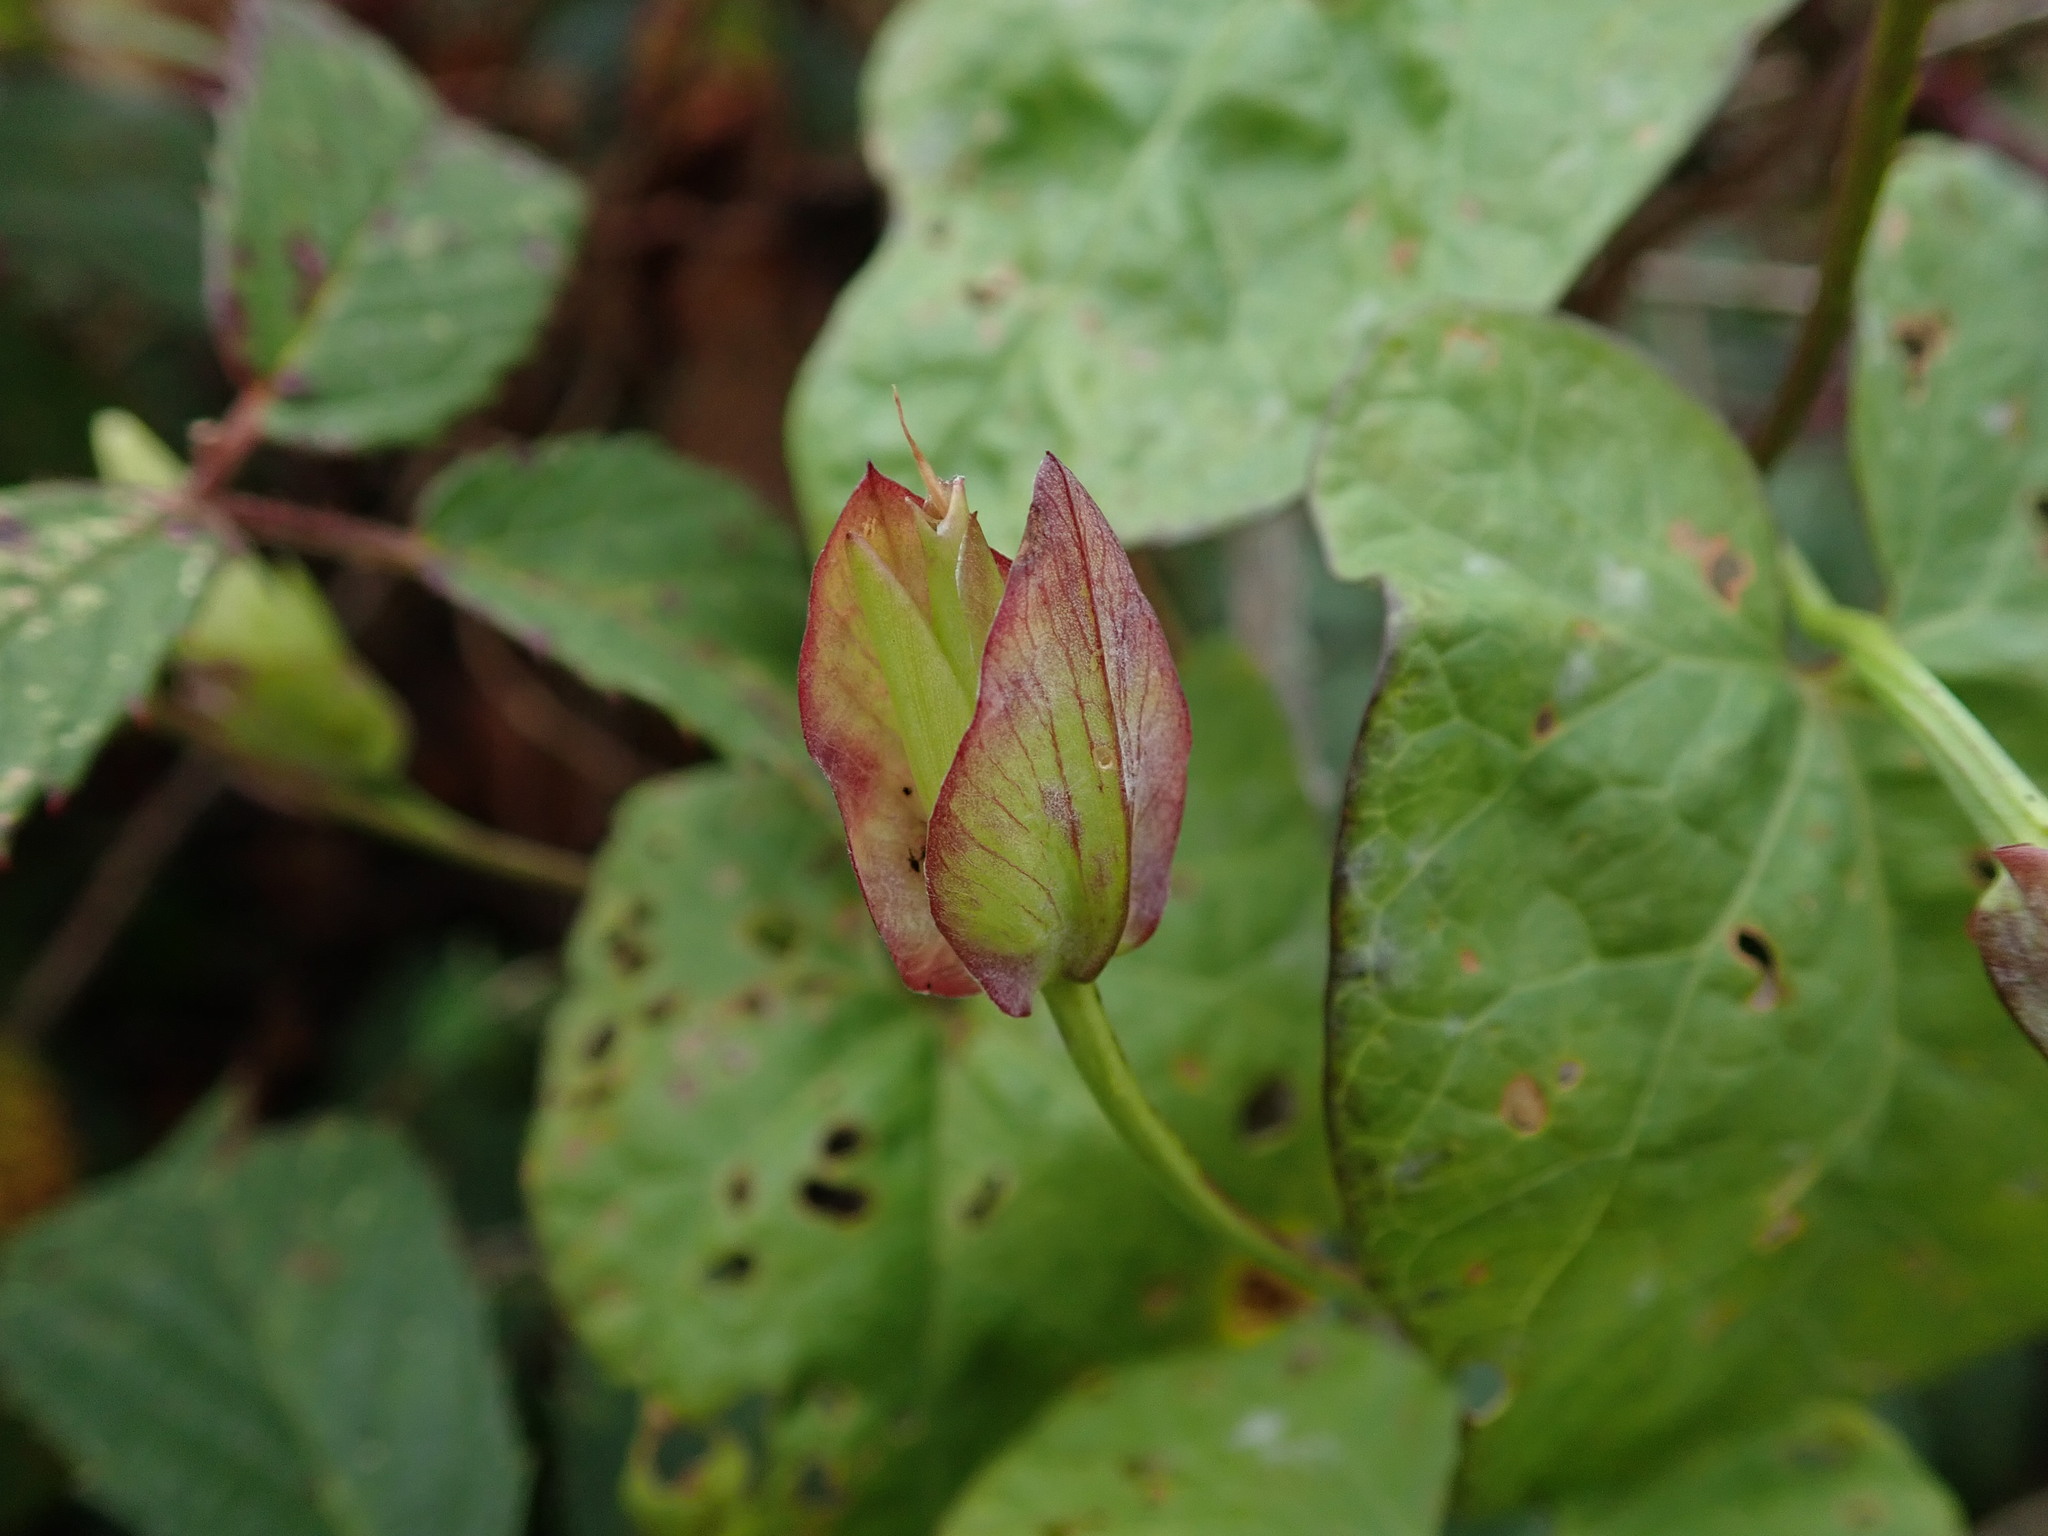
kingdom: Plantae
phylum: Tracheophyta
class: Magnoliopsida
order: Solanales
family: Convolvulaceae
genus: Calystegia
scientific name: Calystegia sepium
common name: Hedge bindweed
